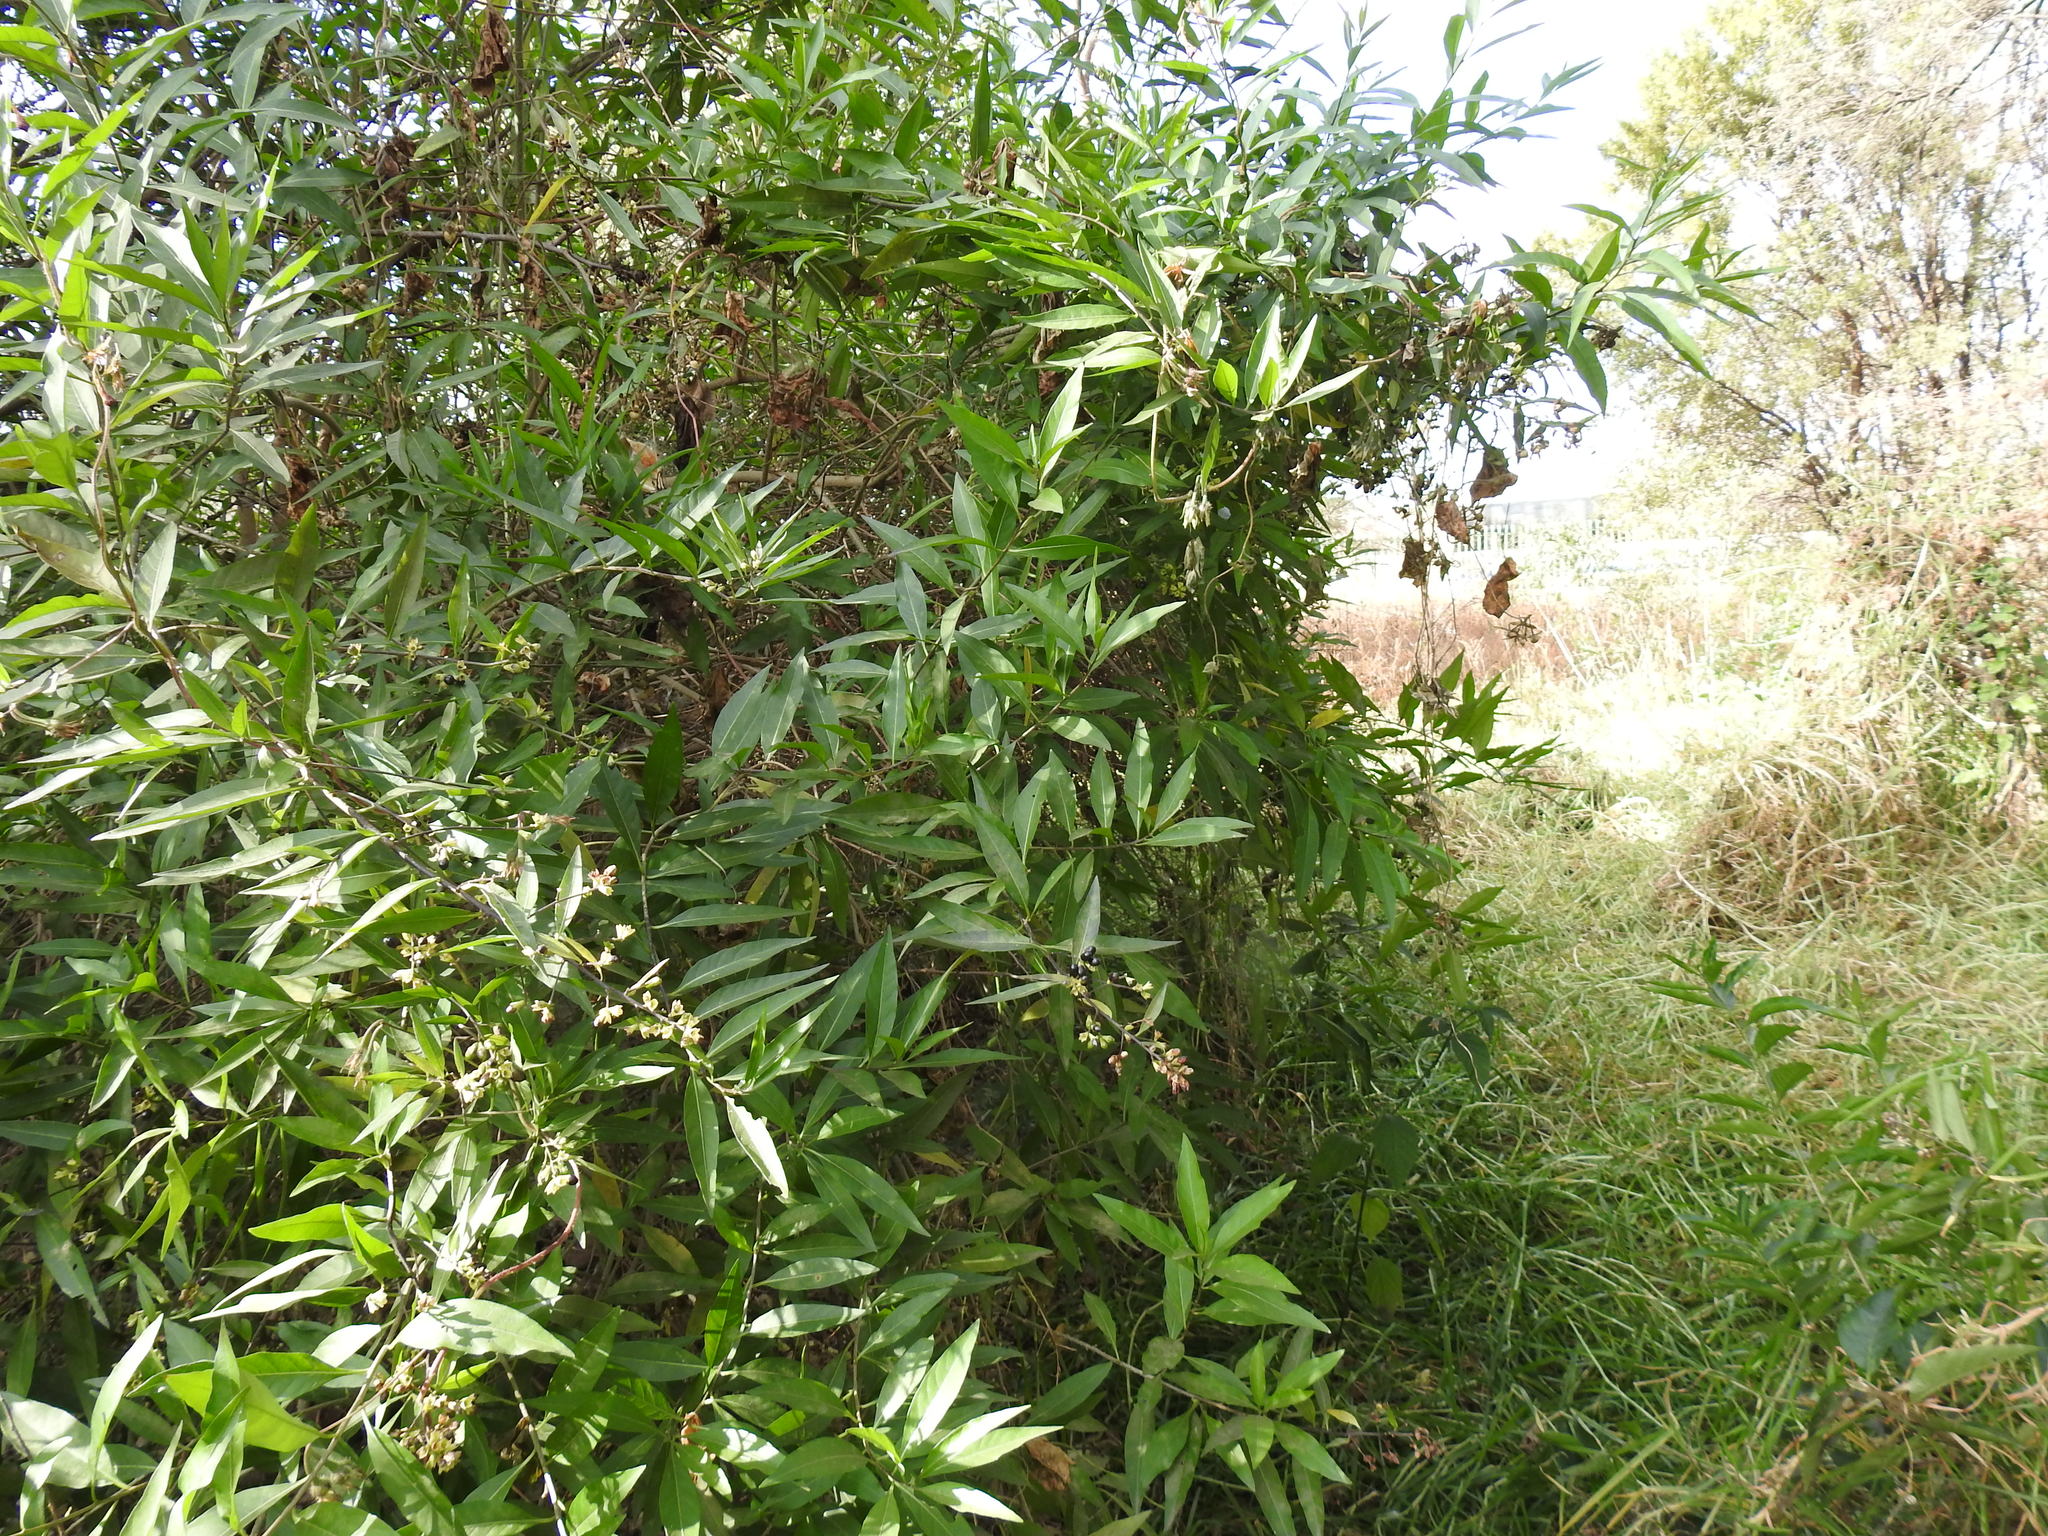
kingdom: Plantae
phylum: Tracheophyta
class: Magnoliopsida
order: Solanales
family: Solanaceae
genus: Cestrum
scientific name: Cestrum parqui
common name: Chilean cestrum
